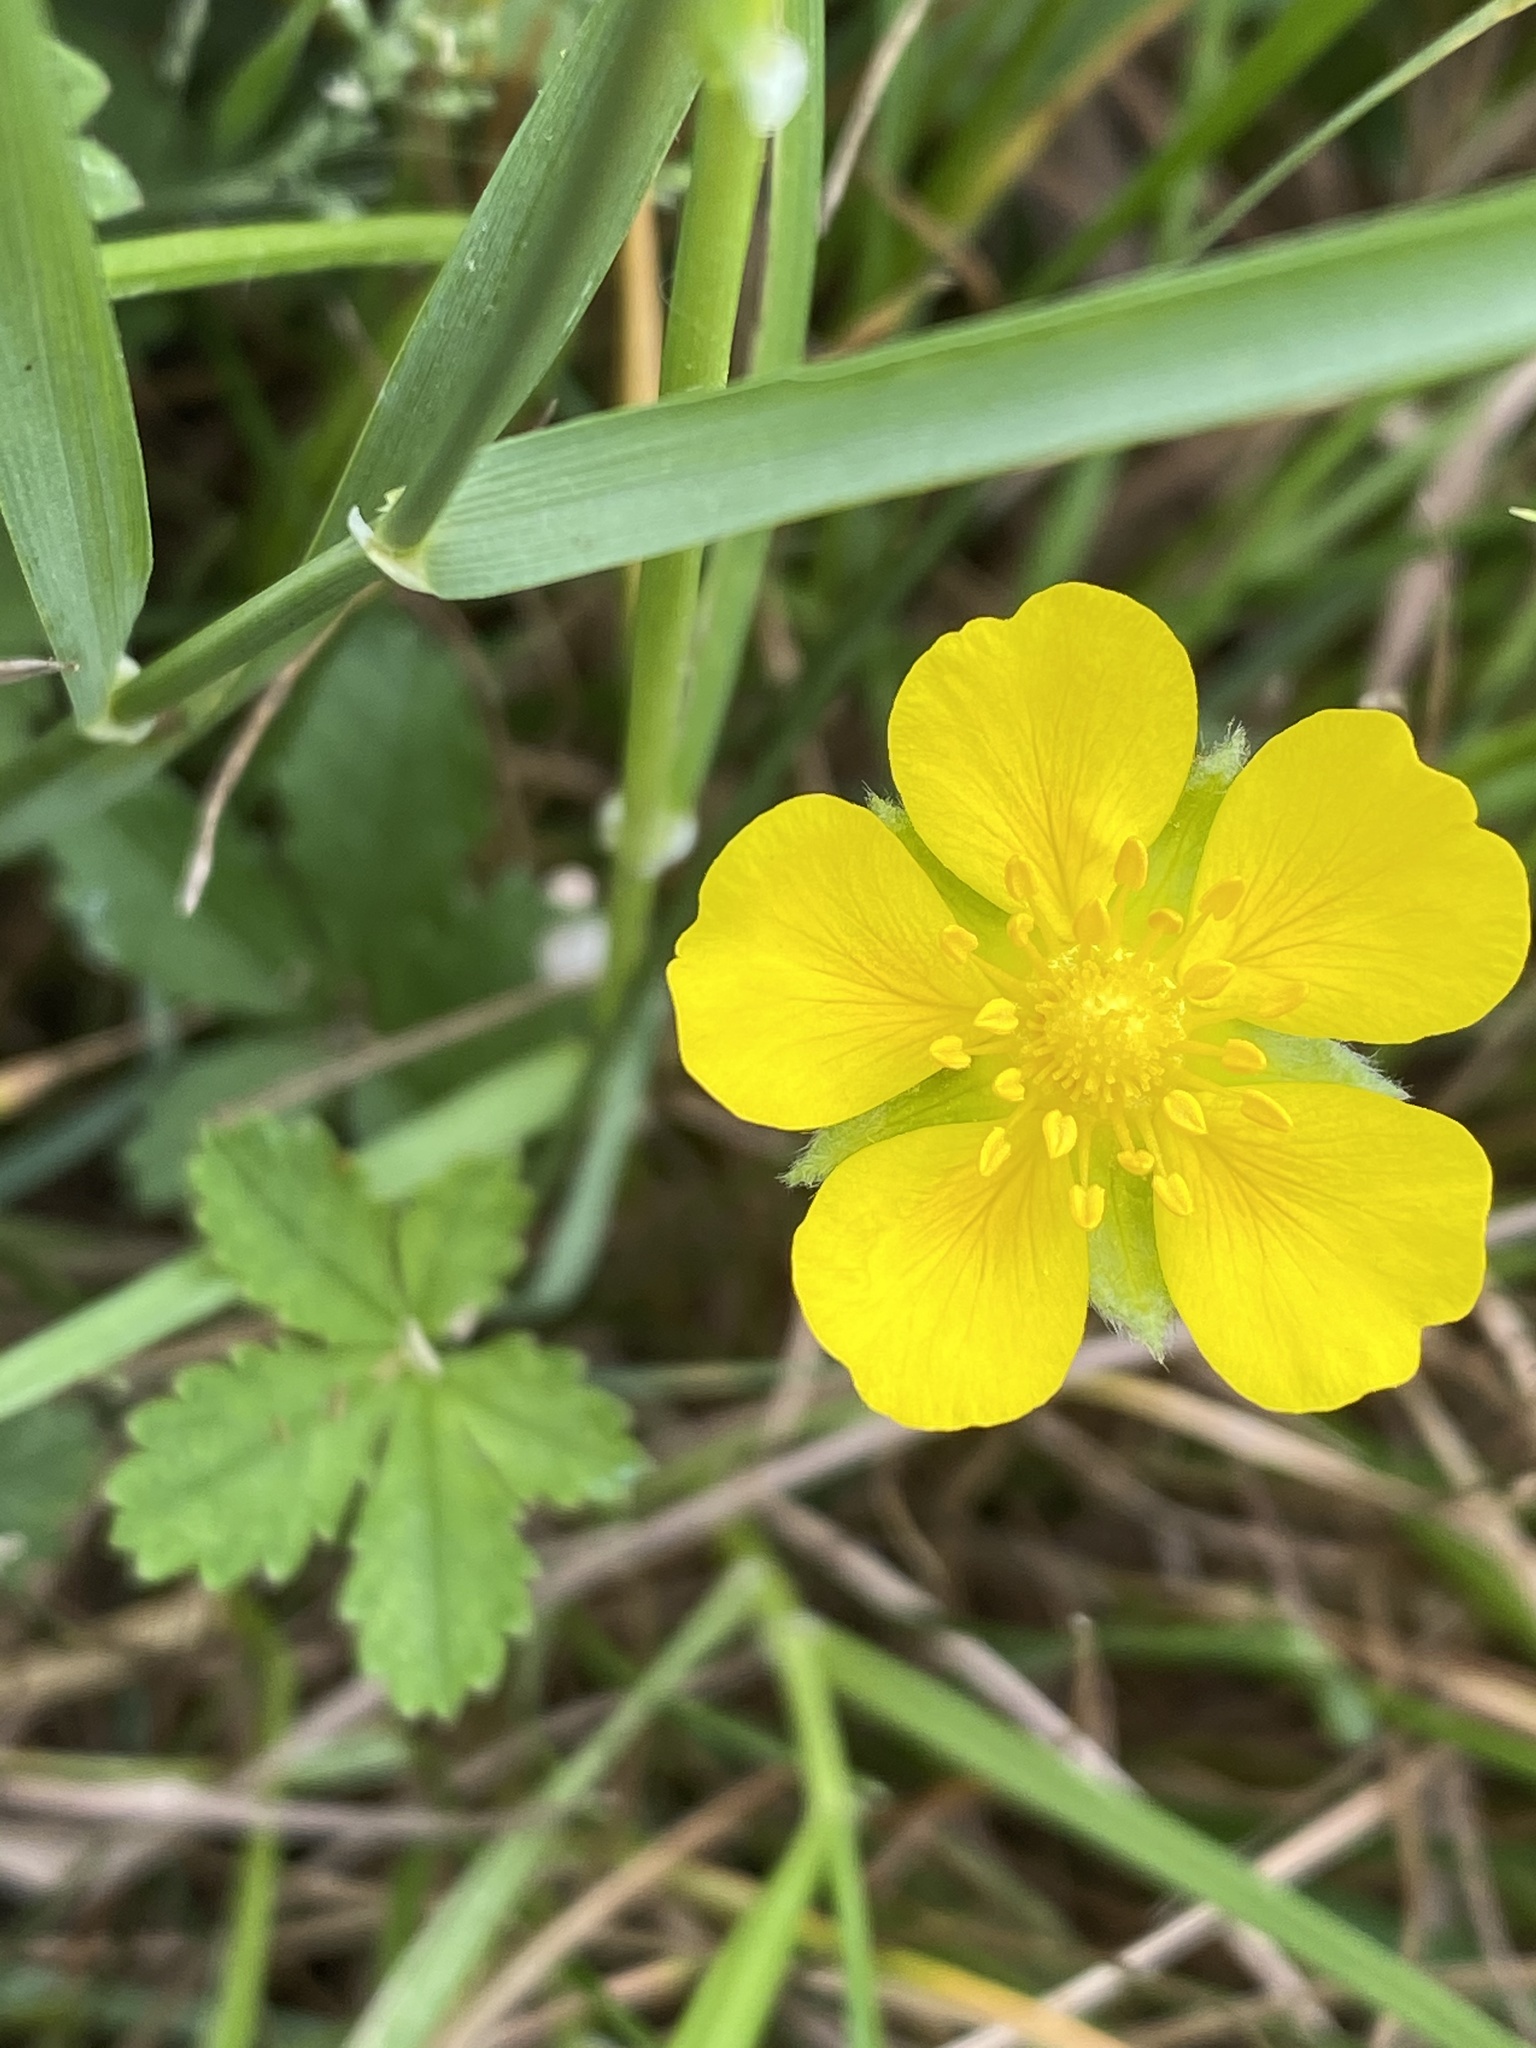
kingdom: Plantae
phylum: Tracheophyta
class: Magnoliopsida
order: Rosales
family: Rosaceae
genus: Potentilla
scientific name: Potentilla reptans
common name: Creeping cinquefoil
